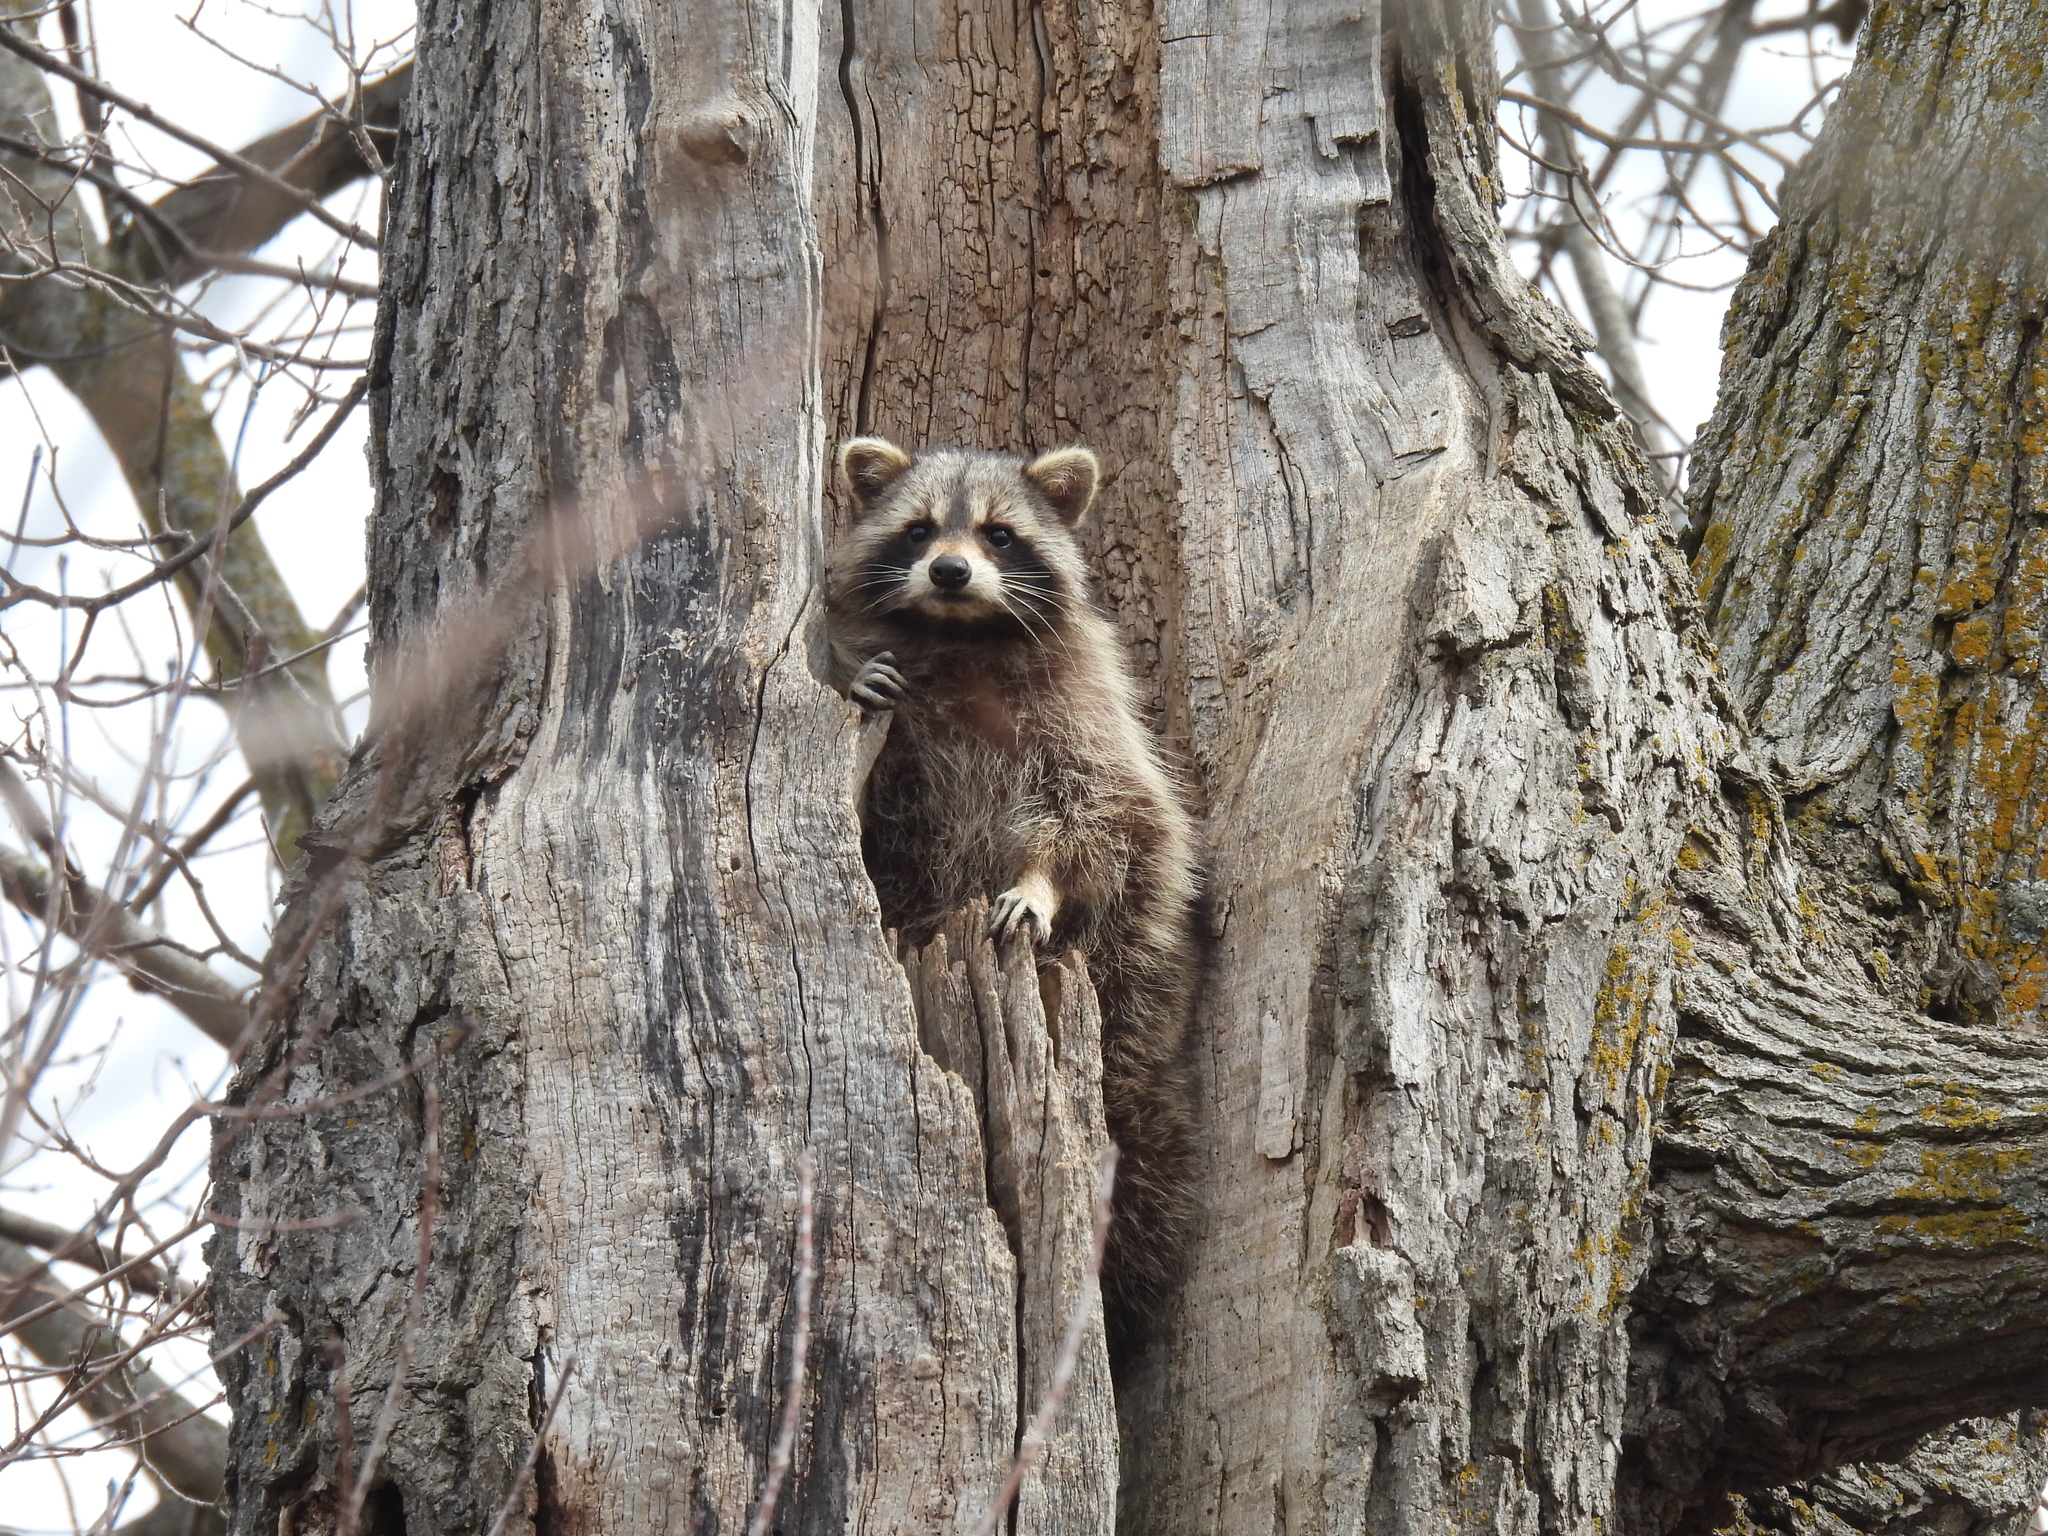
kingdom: Animalia
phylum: Chordata
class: Mammalia
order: Carnivora
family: Procyonidae
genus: Procyon
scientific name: Procyon lotor
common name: Raccoon
